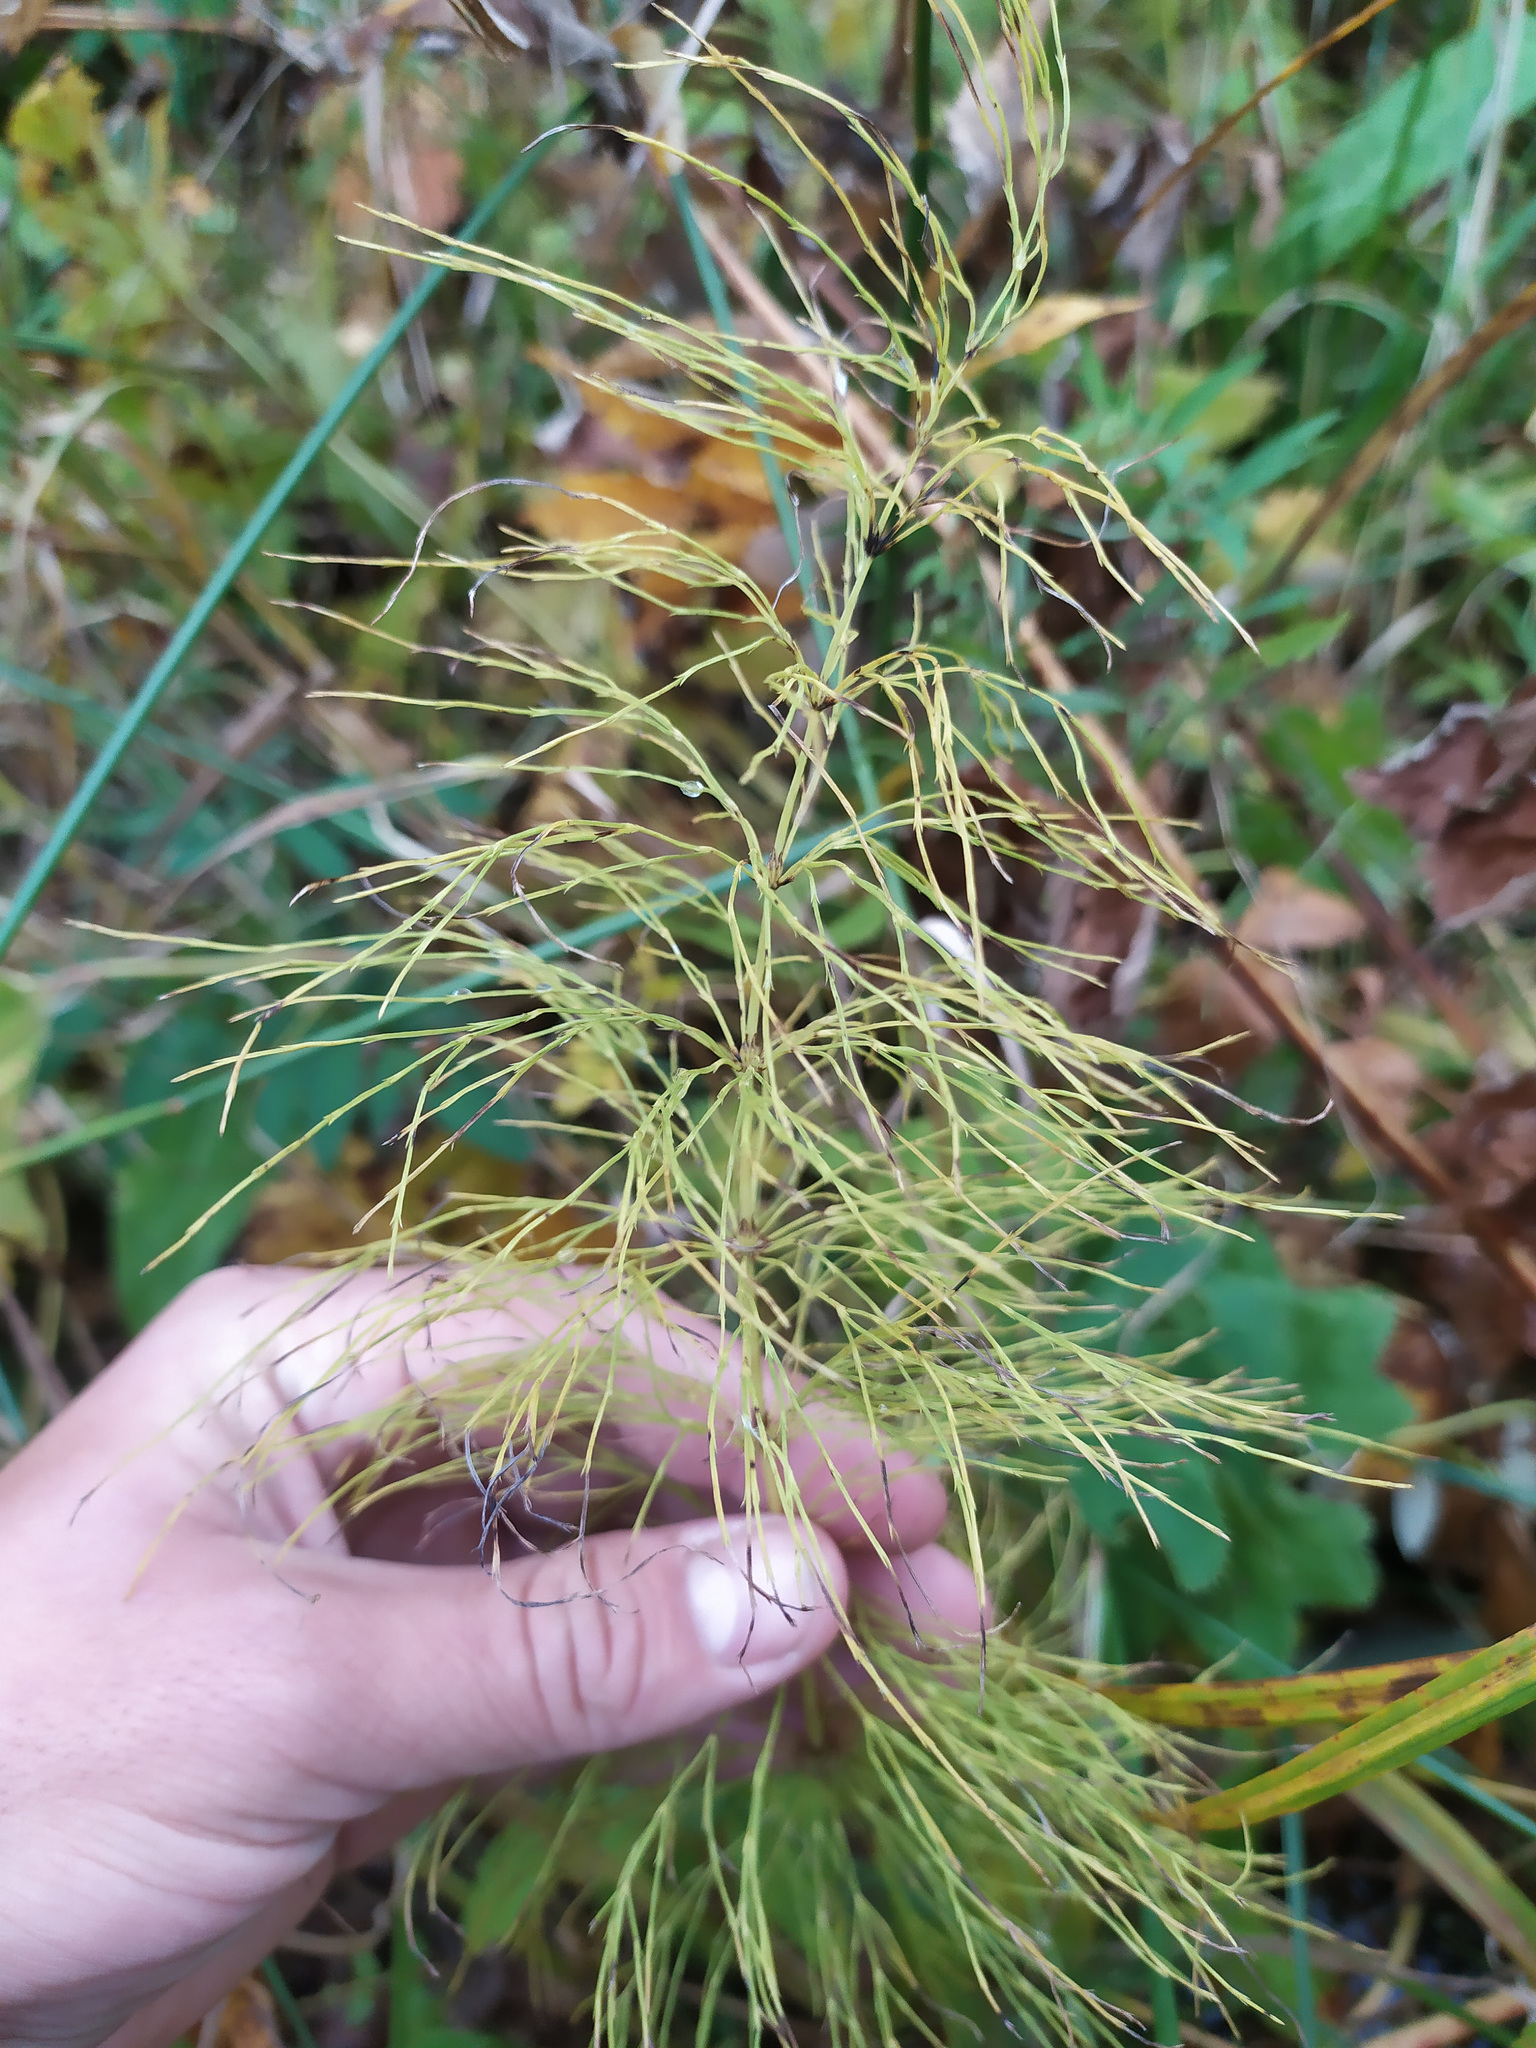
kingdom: Plantae
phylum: Tracheophyta
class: Polypodiopsida
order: Equisetales
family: Equisetaceae
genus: Equisetum
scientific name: Equisetum sylvaticum
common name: Wood horsetail
